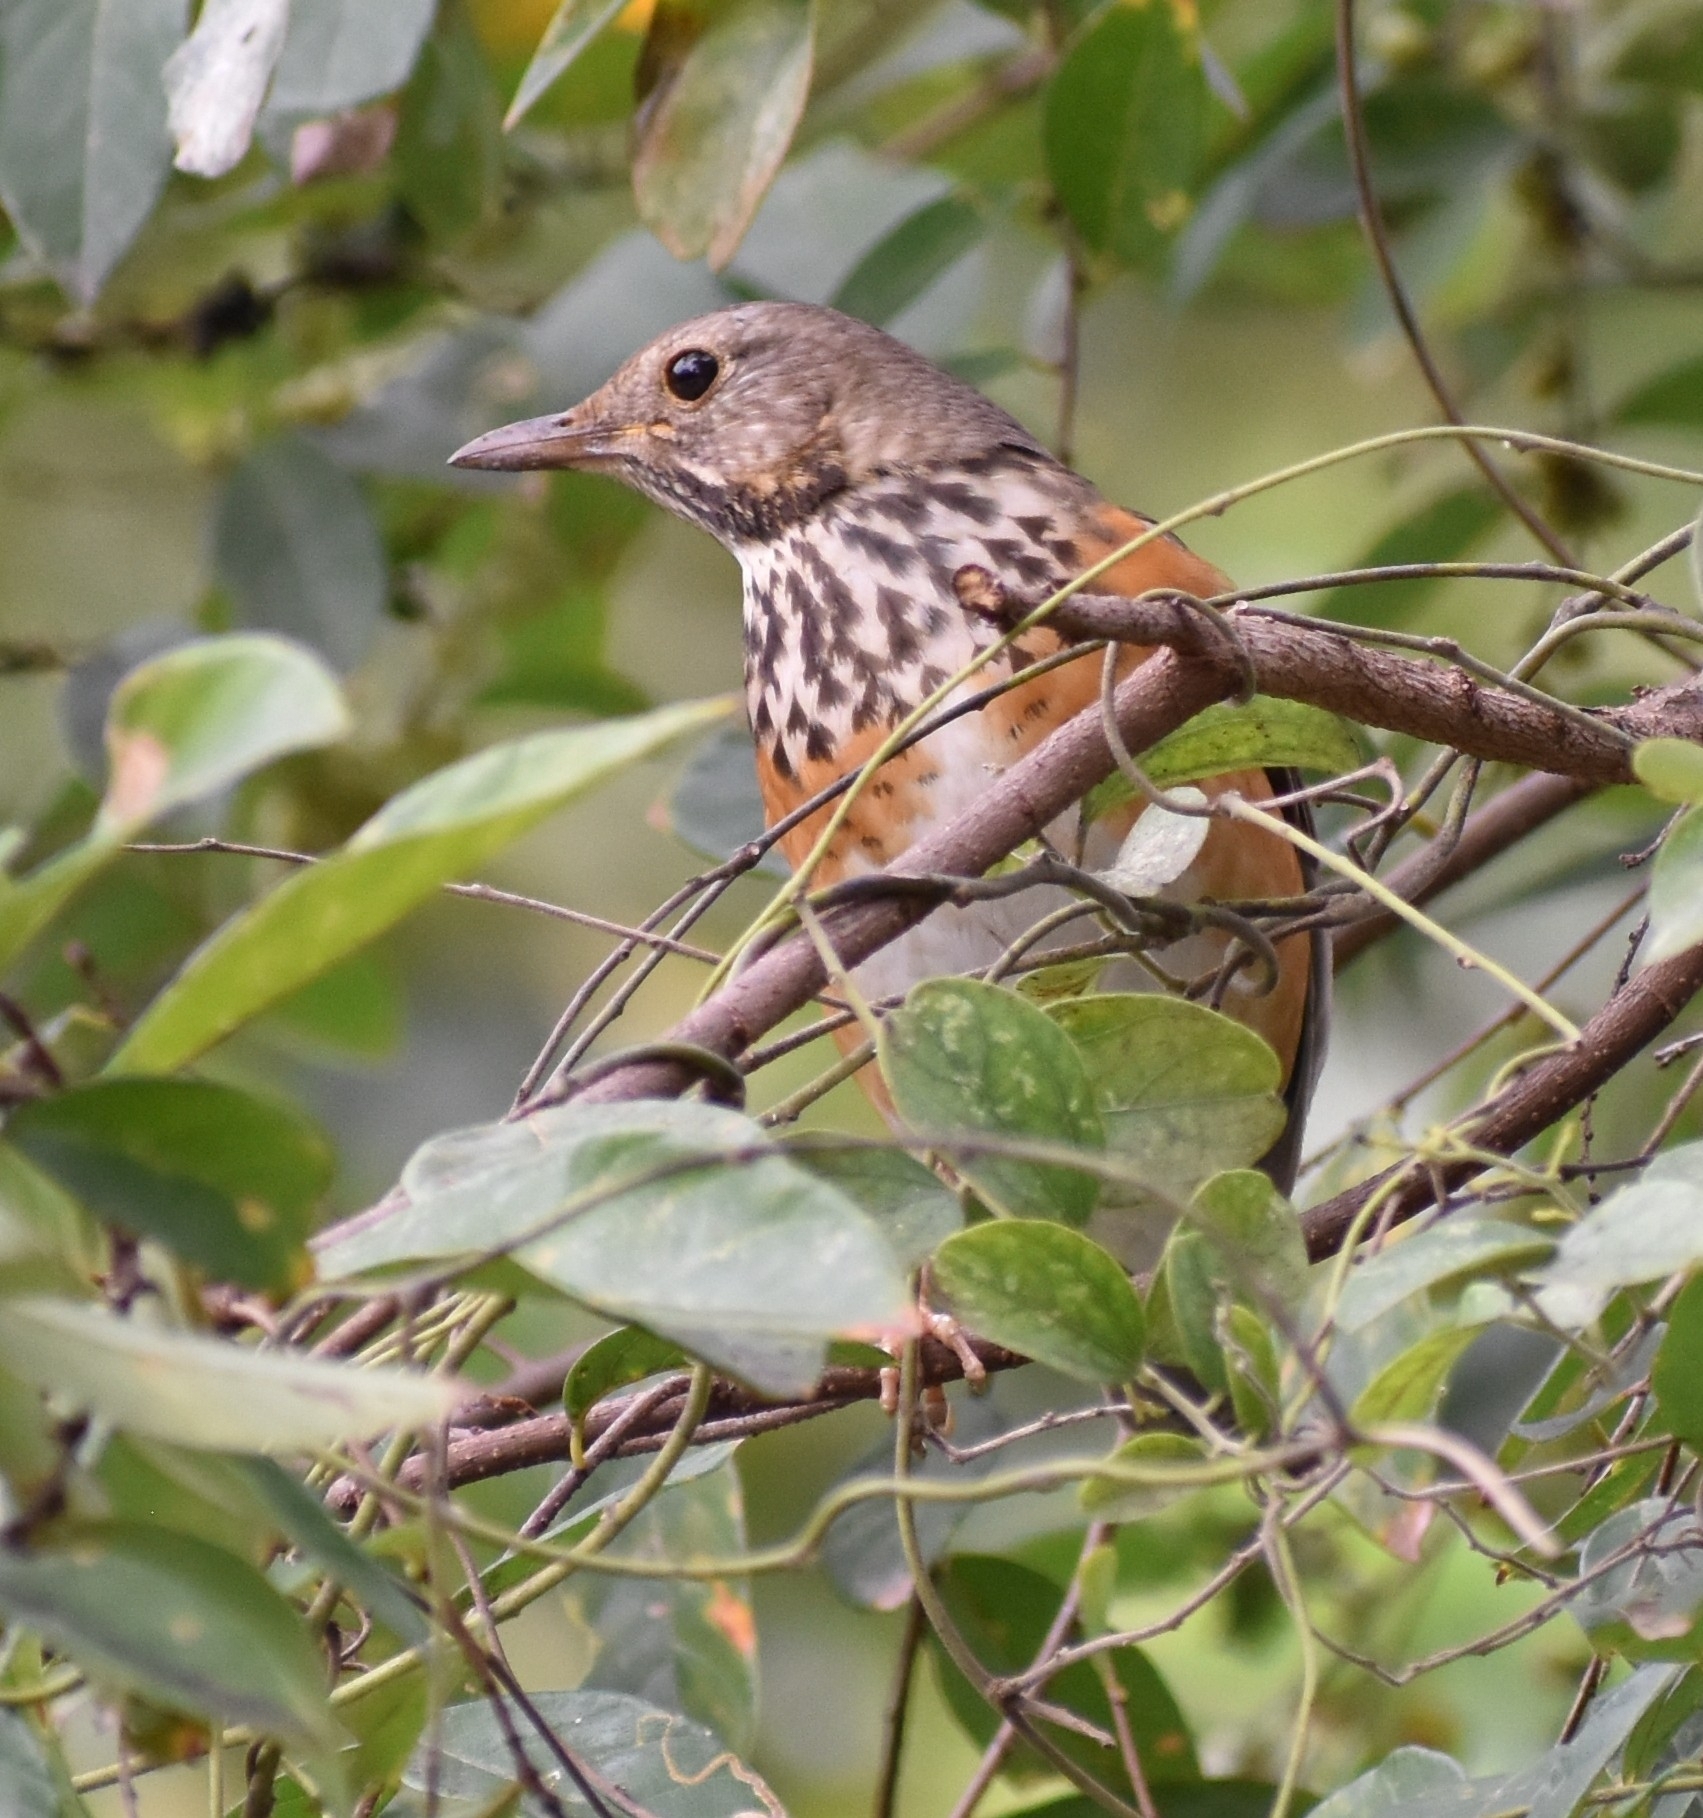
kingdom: Animalia
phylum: Chordata
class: Aves
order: Passeriformes
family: Turdidae
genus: Turdus
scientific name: Turdus hortulorum
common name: Grey-backed thrush
